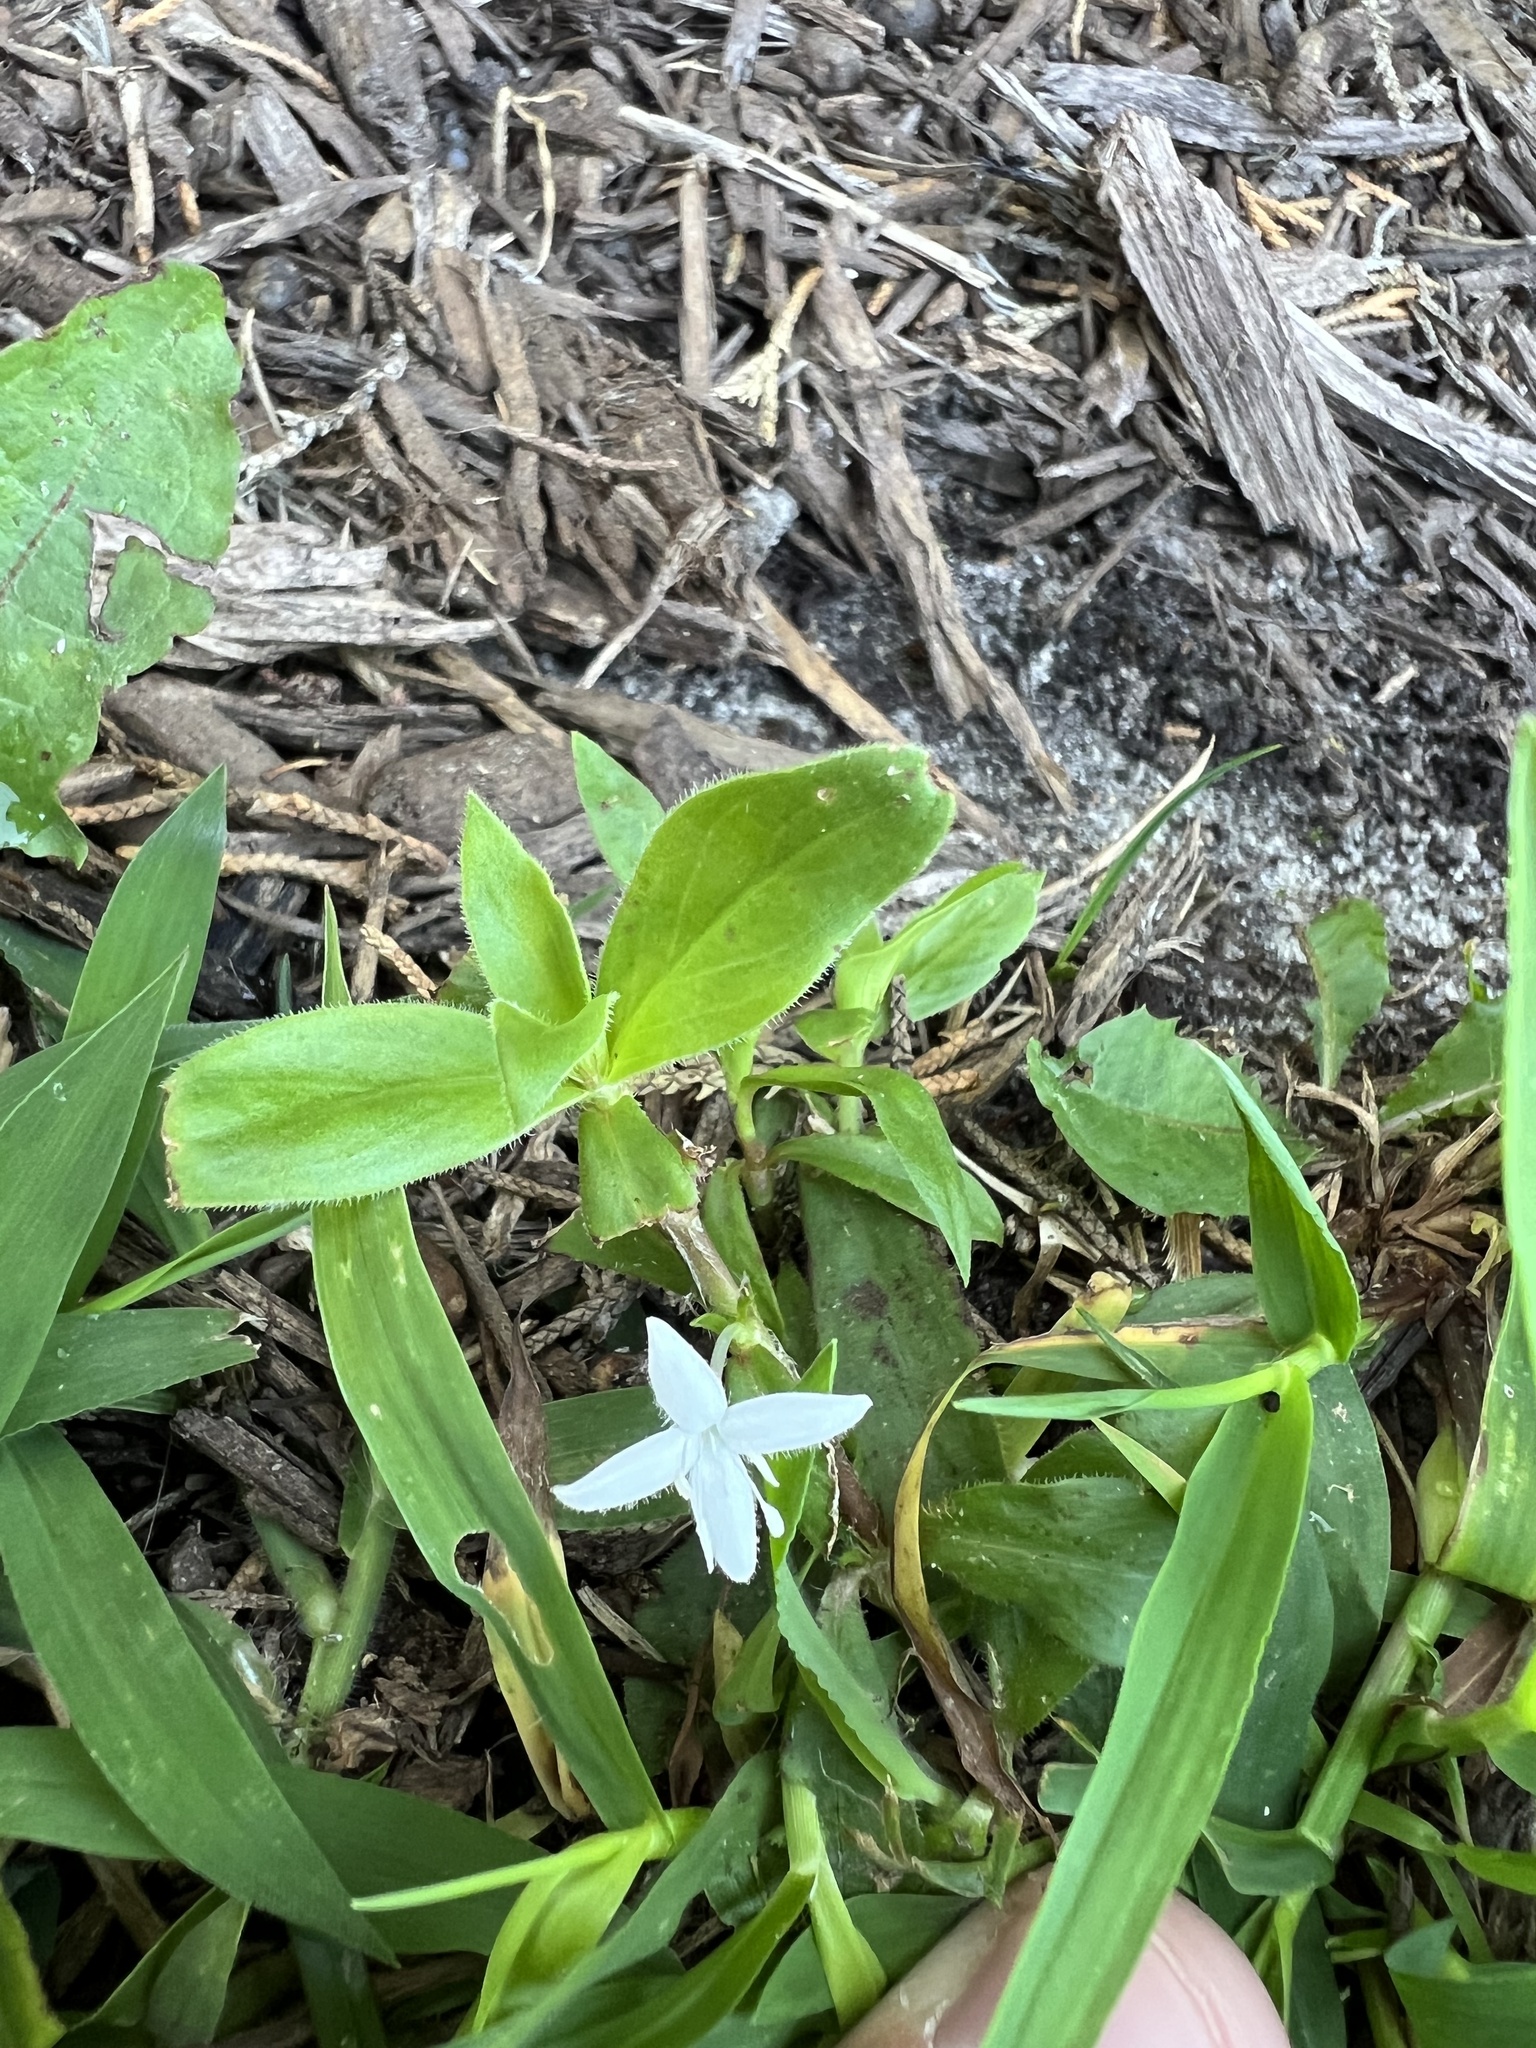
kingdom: Plantae
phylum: Tracheophyta
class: Magnoliopsida
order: Gentianales
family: Rubiaceae
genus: Diodia
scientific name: Diodia virginiana
